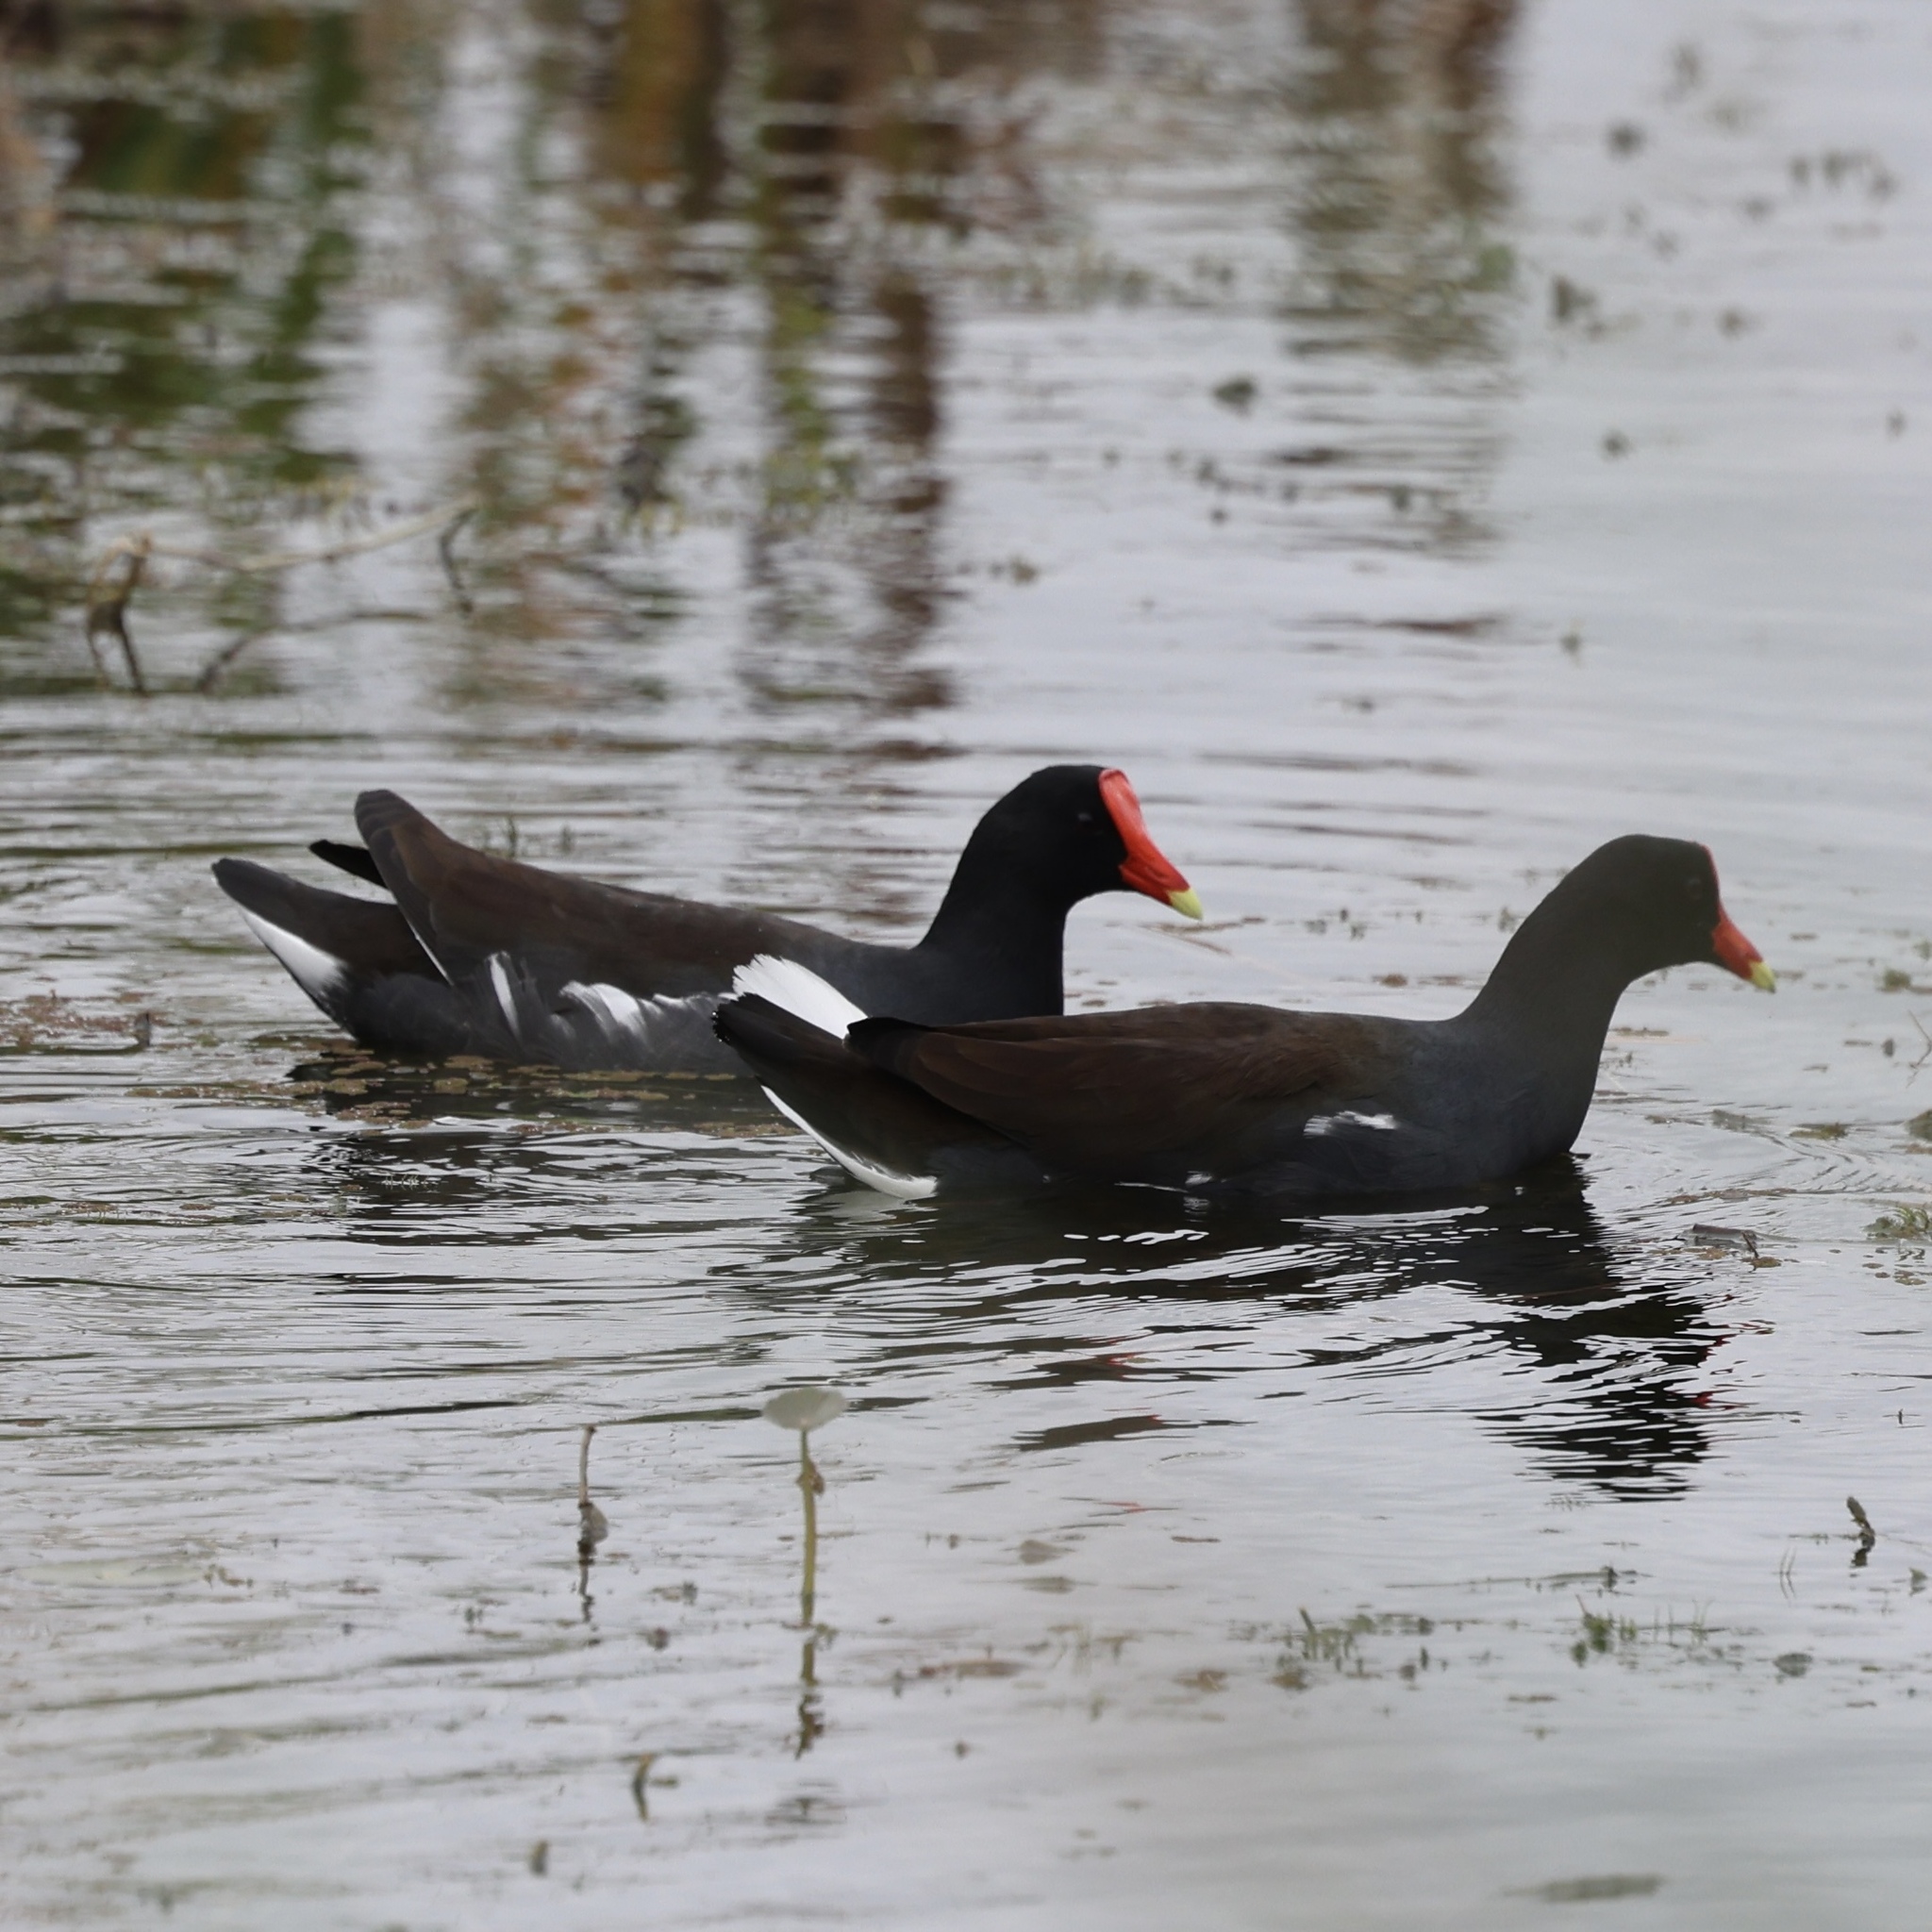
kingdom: Animalia
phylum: Chordata
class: Aves
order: Gruiformes
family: Rallidae
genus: Gallinula
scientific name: Gallinula chloropus
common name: Common moorhen
